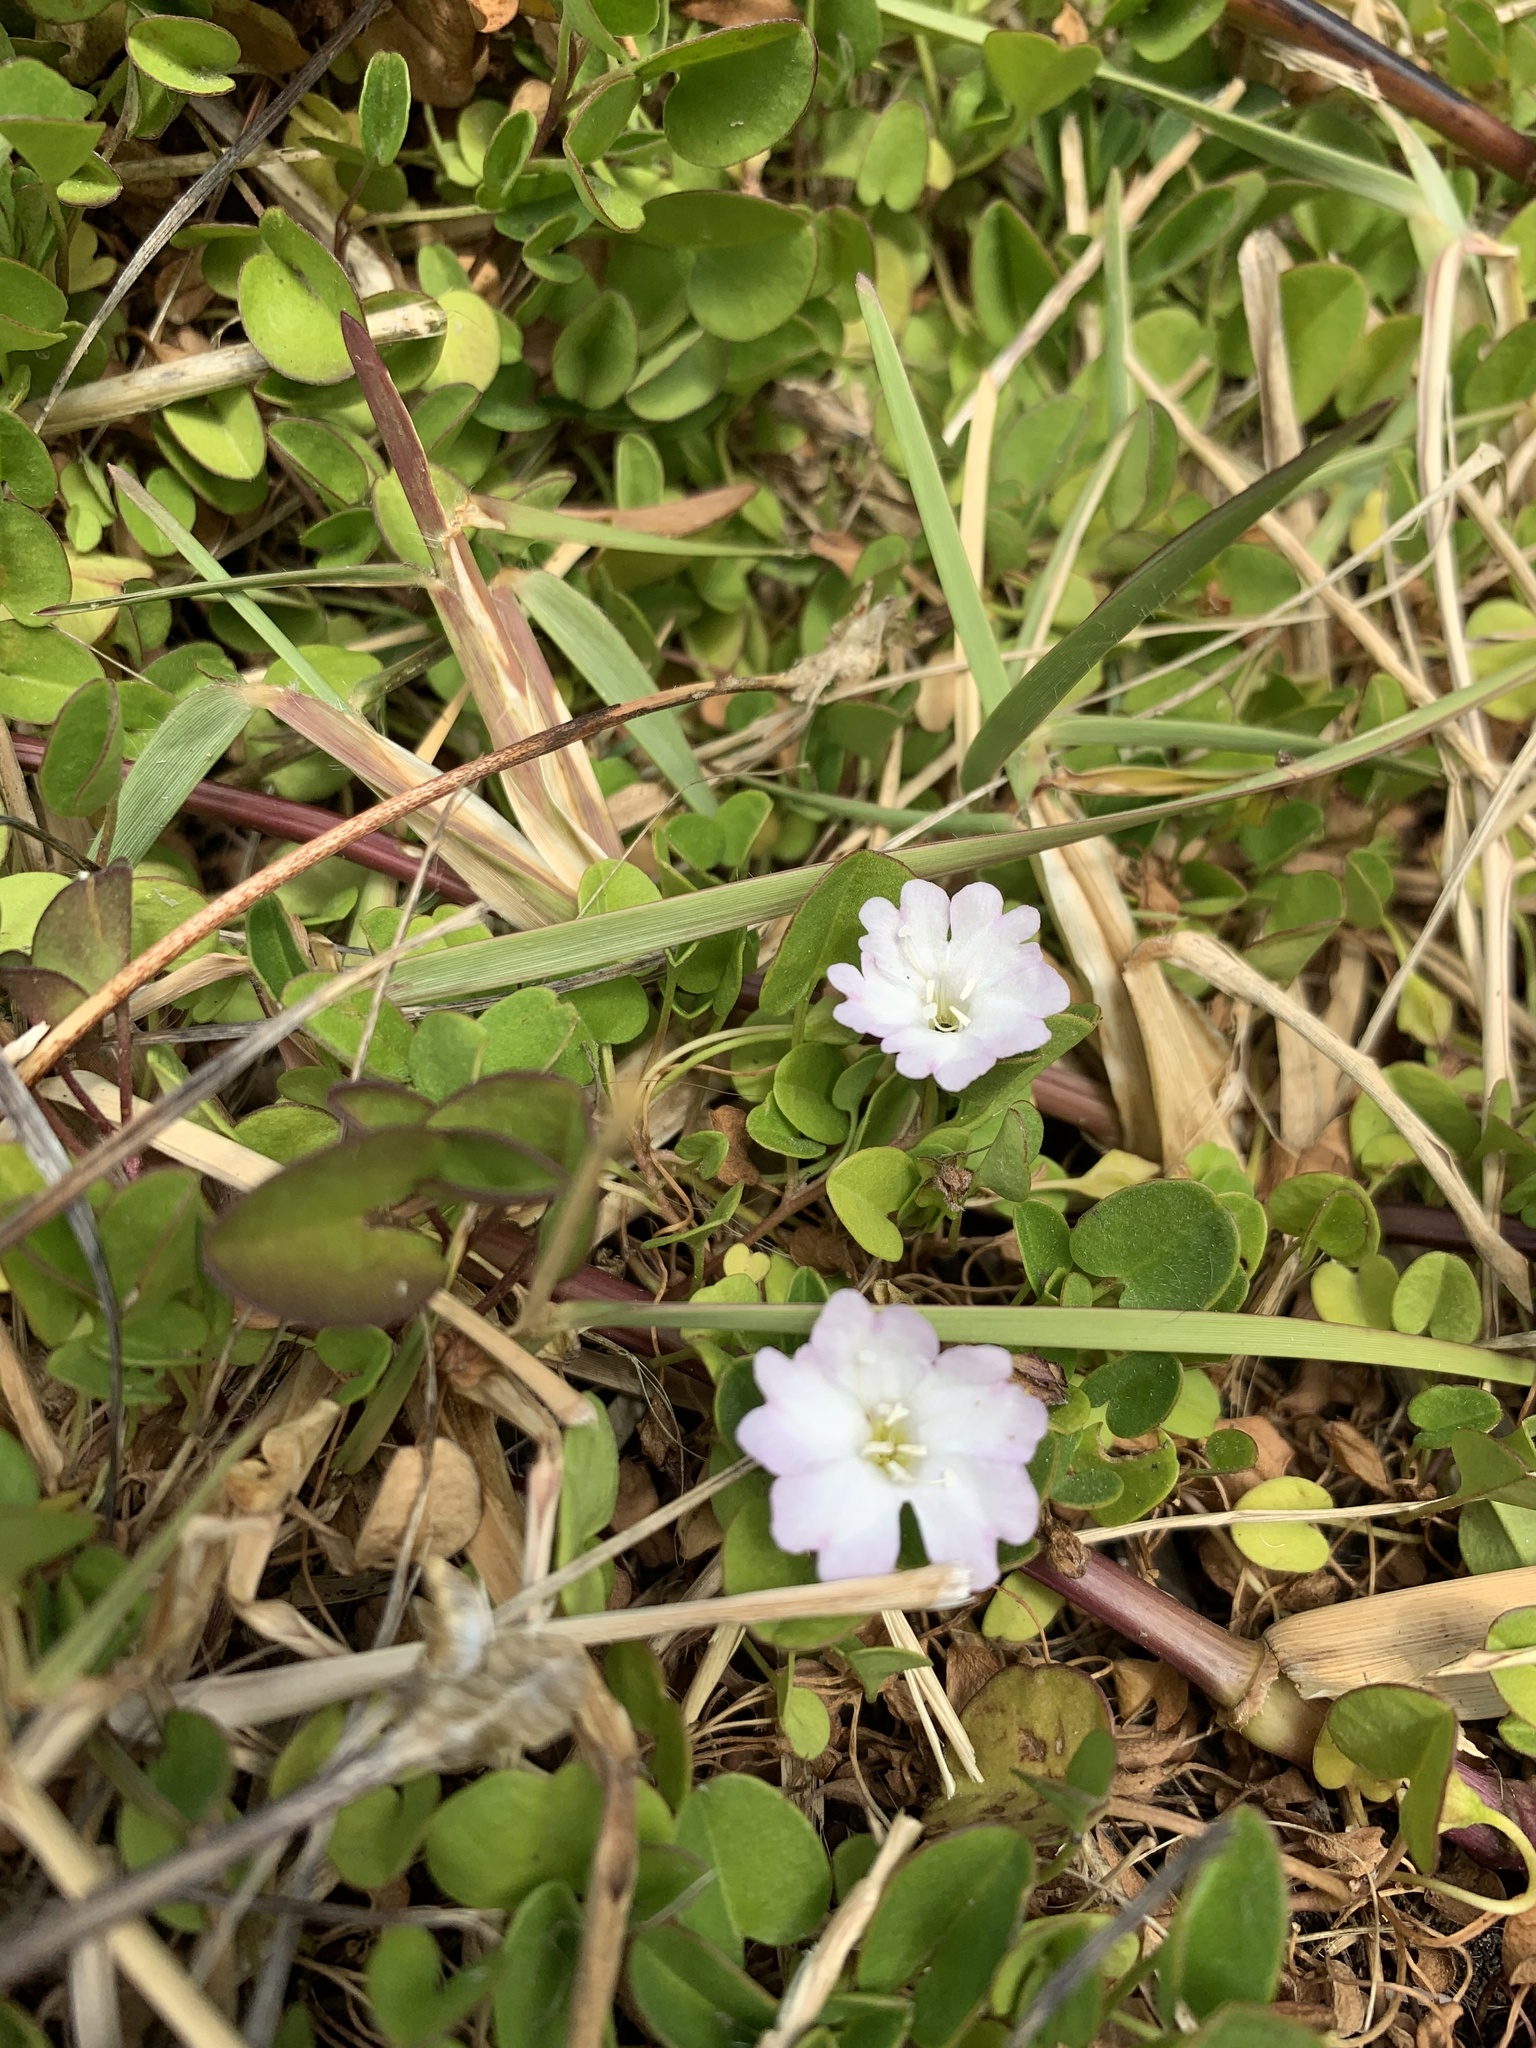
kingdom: Plantae
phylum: Tracheophyta
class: Magnoliopsida
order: Solanales
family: Convolvulaceae
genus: Falkia
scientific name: Falkia repens
